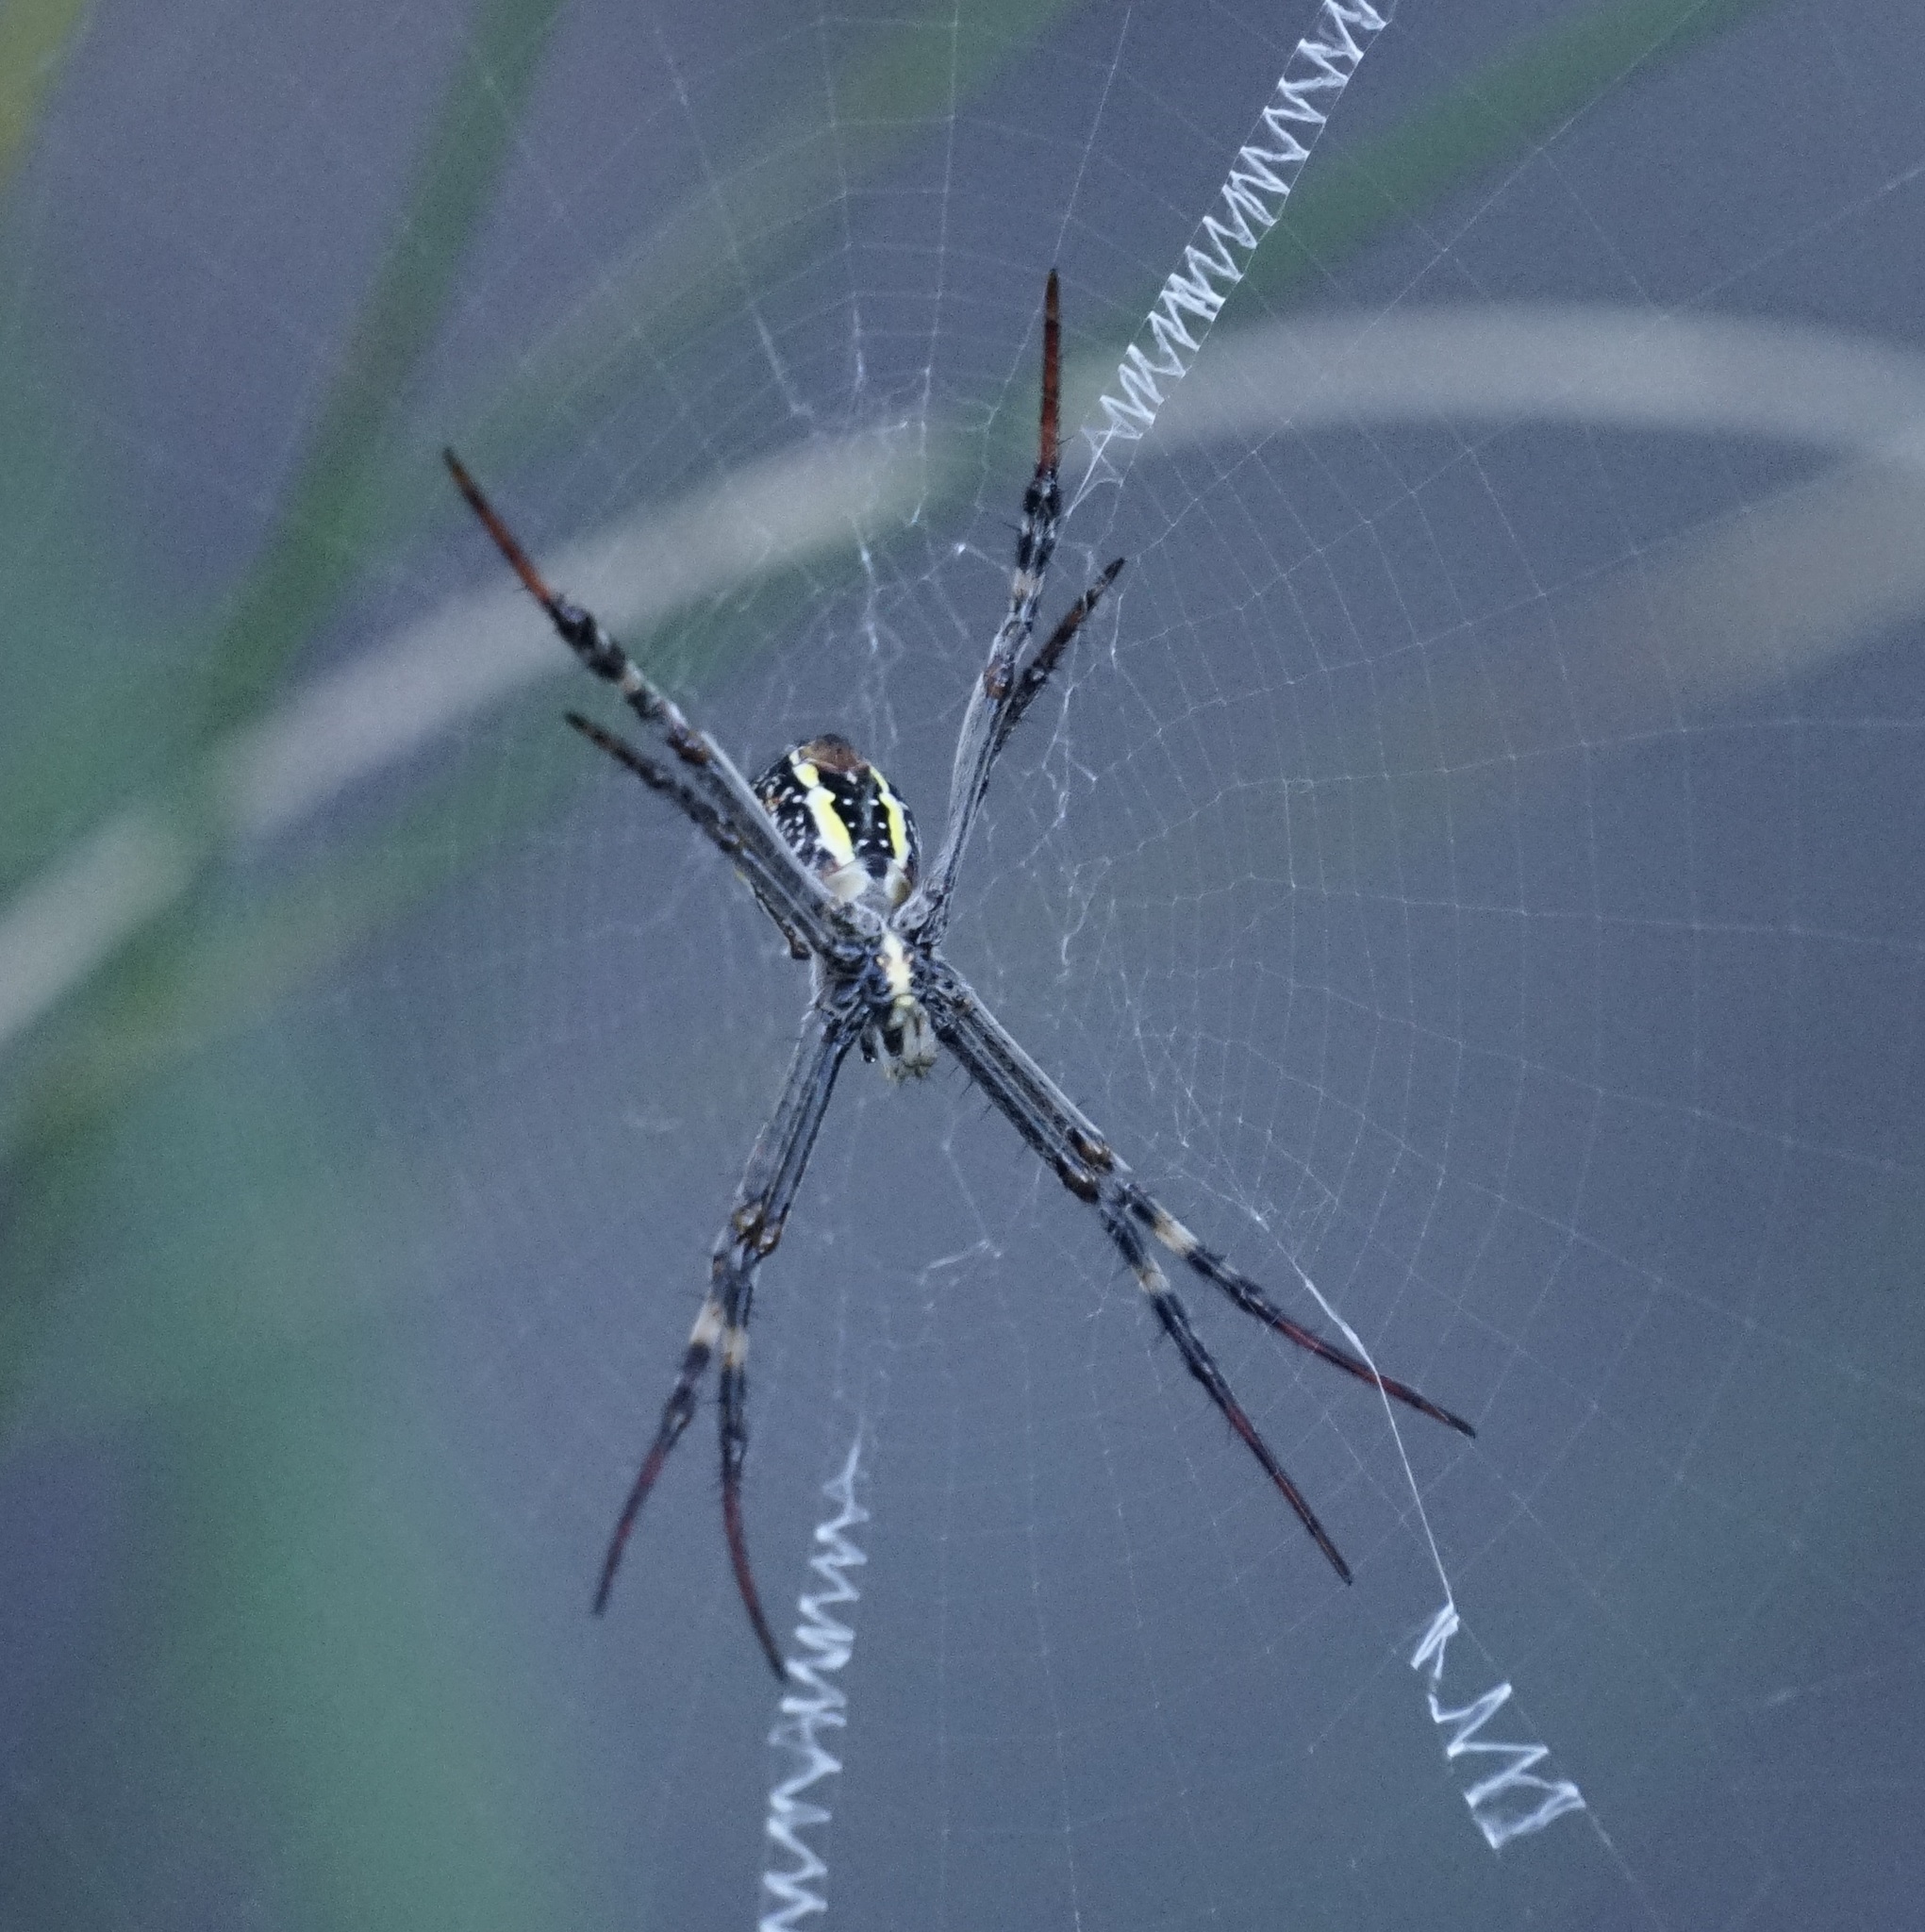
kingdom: Animalia
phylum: Arthropoda
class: Arachnida
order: Araneae
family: Araneidae
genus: Argiope
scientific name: Argiope keyserlingi
